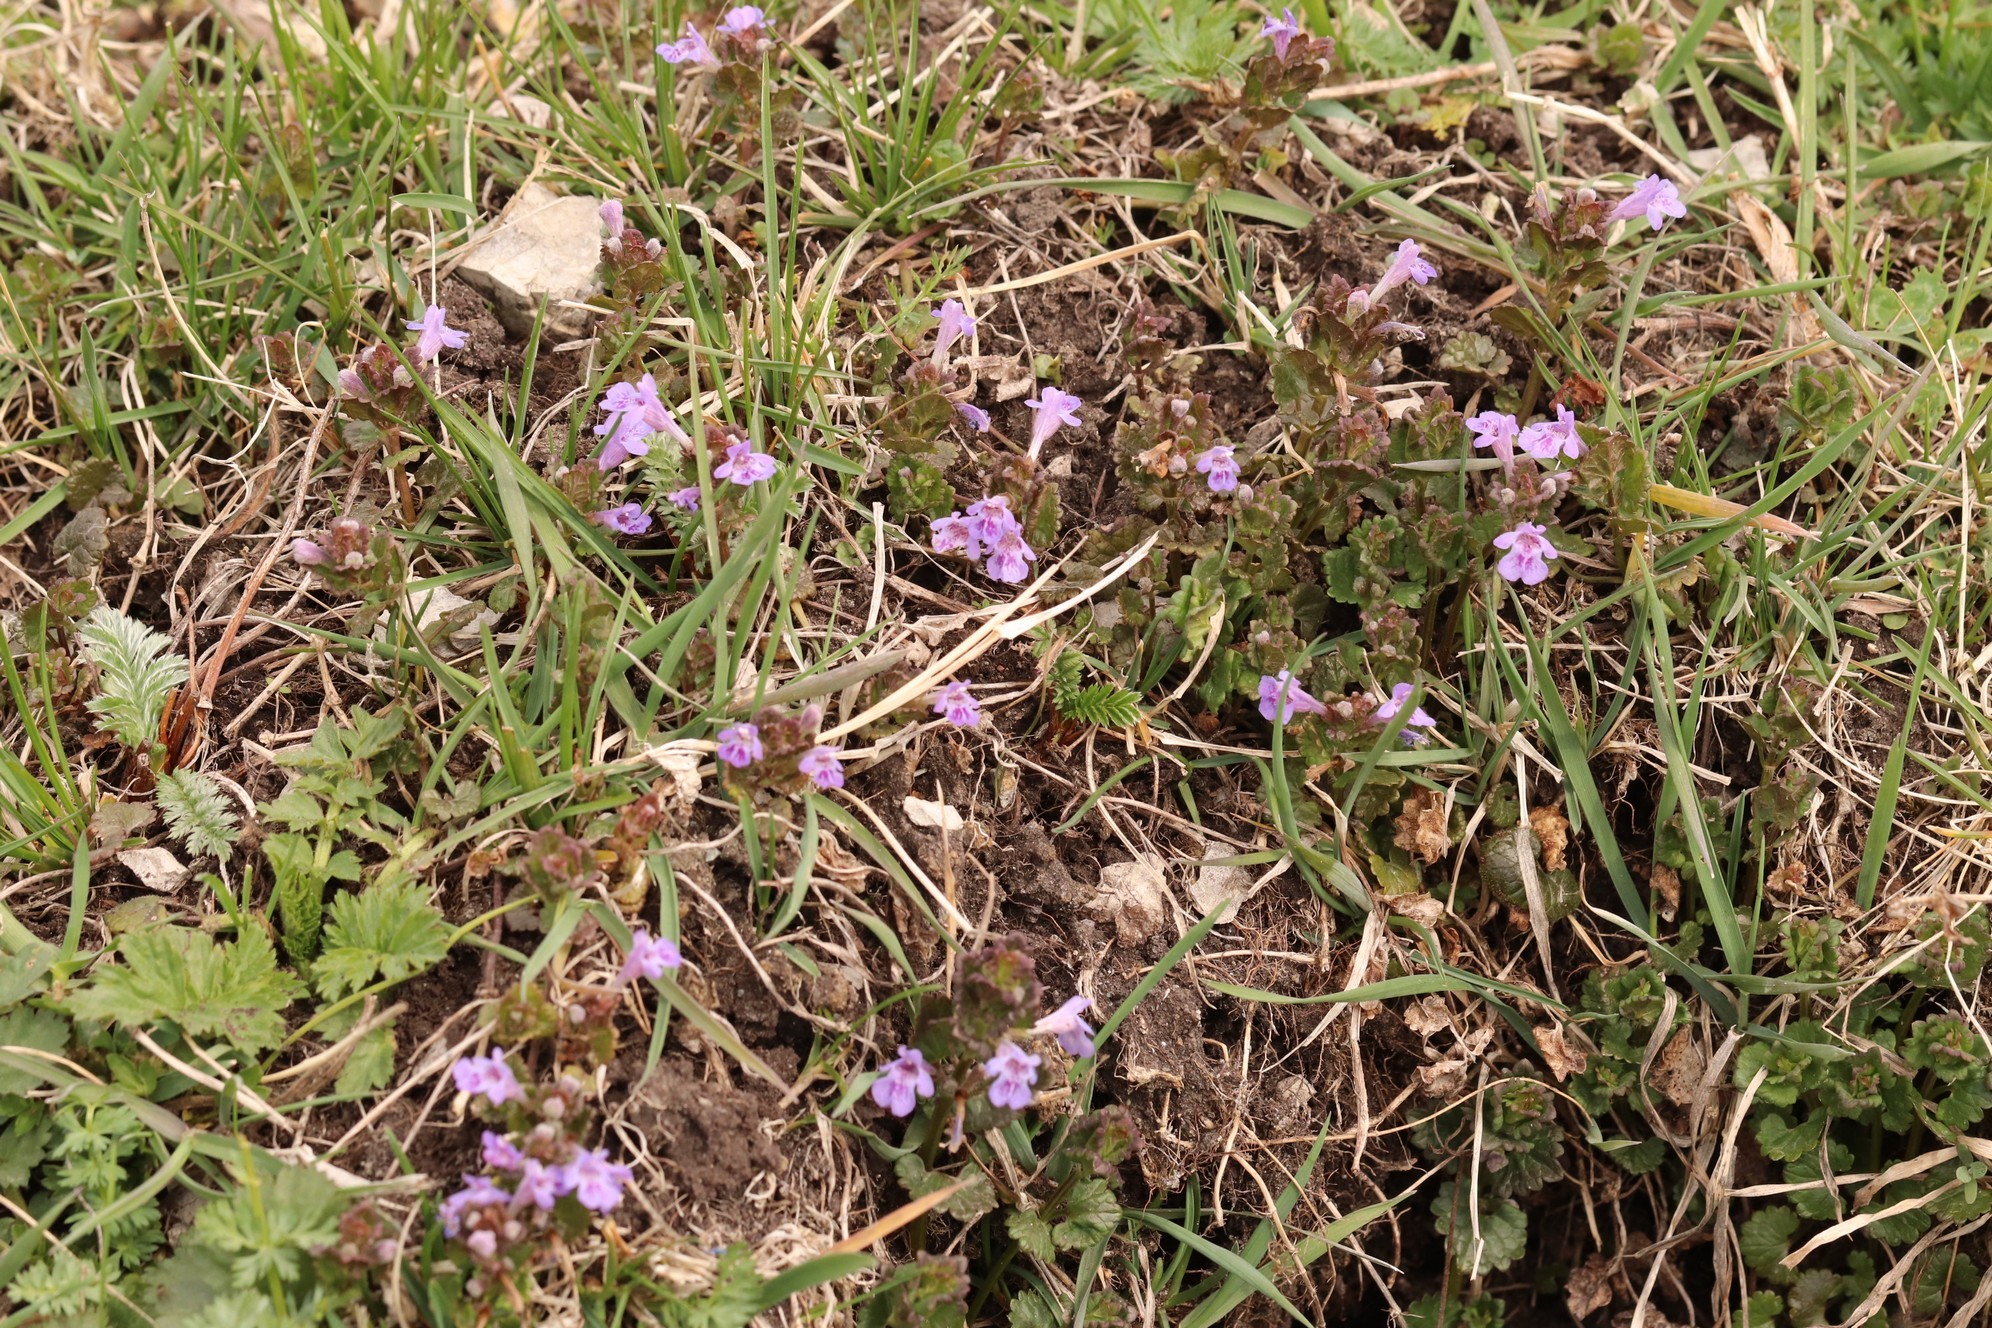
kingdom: Plantae
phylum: Tracheophyta
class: Magnoliopsida
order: Lamiales
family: Lamiaceae
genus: Glechoma
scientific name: Glechoma hederacea
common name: Ground ivy
